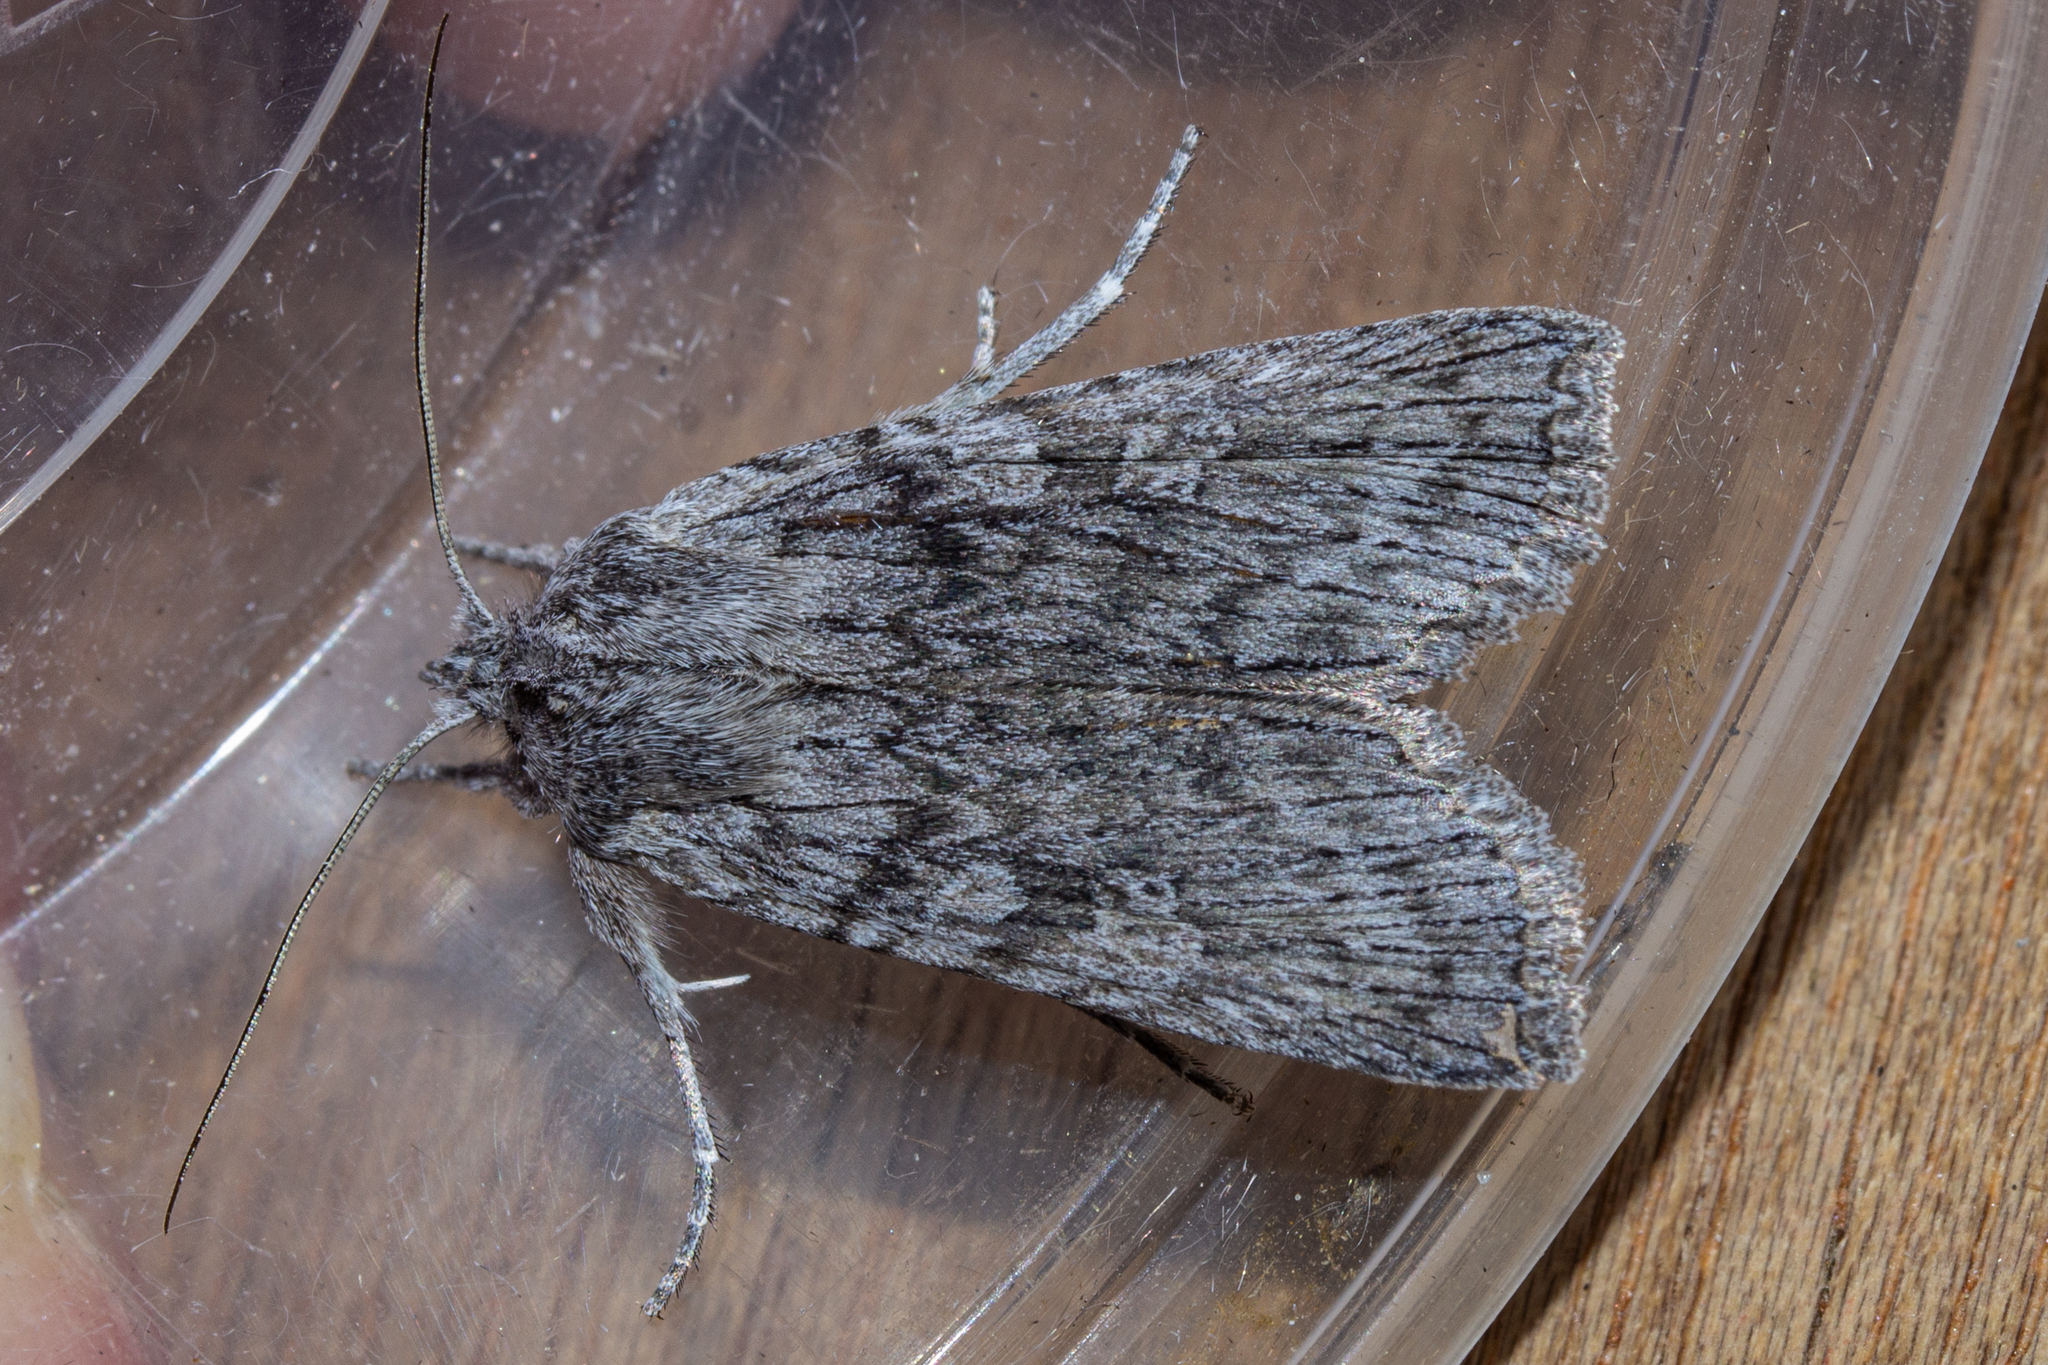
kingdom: Animalia
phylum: Arthropoda
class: Insecta
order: Lepidoptera
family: Noctuidae
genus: Physetica
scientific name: Physetica phricias
